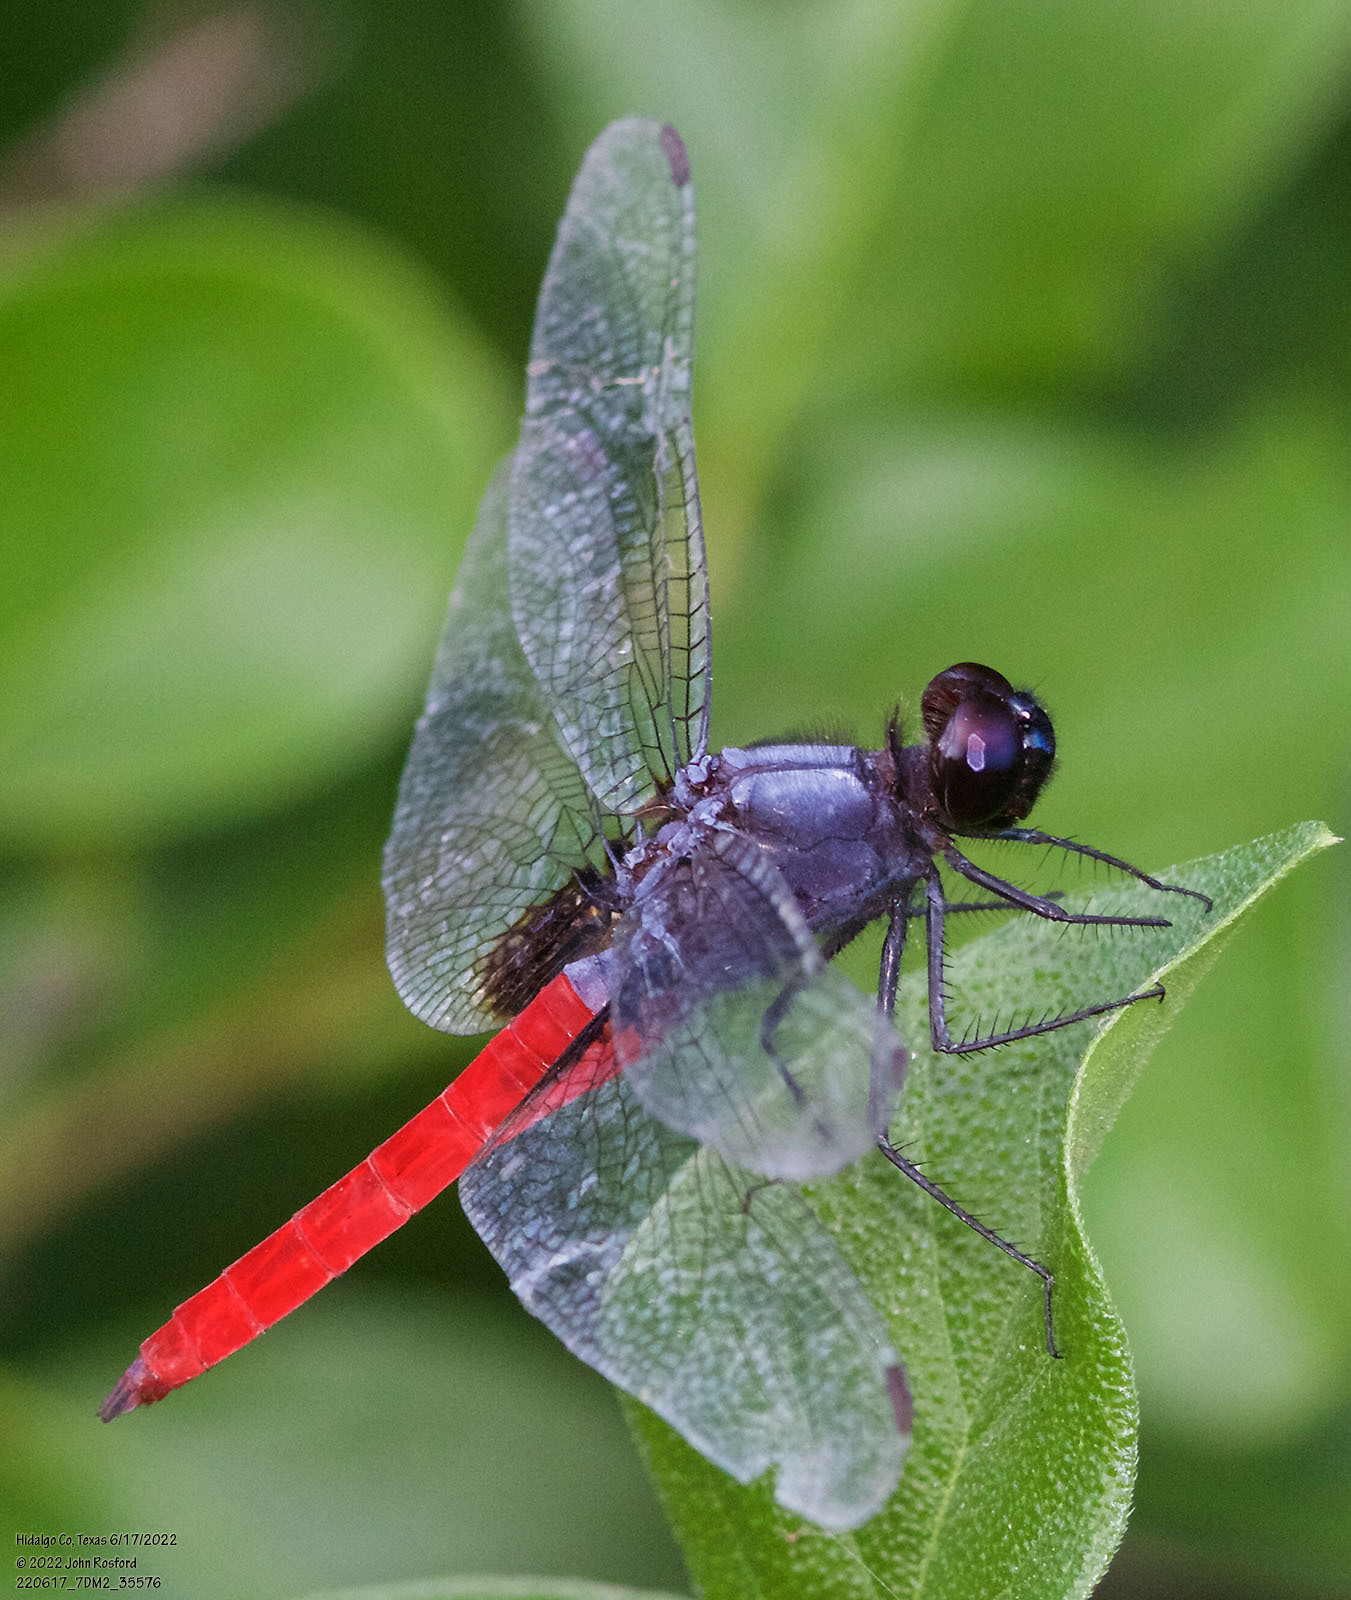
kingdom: Animalia
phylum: Arthropoda
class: Insecta
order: Odonata
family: Libellulidae
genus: Planiplax
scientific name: Planiplax sanguiniventris
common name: Mexican scarlet-tail
